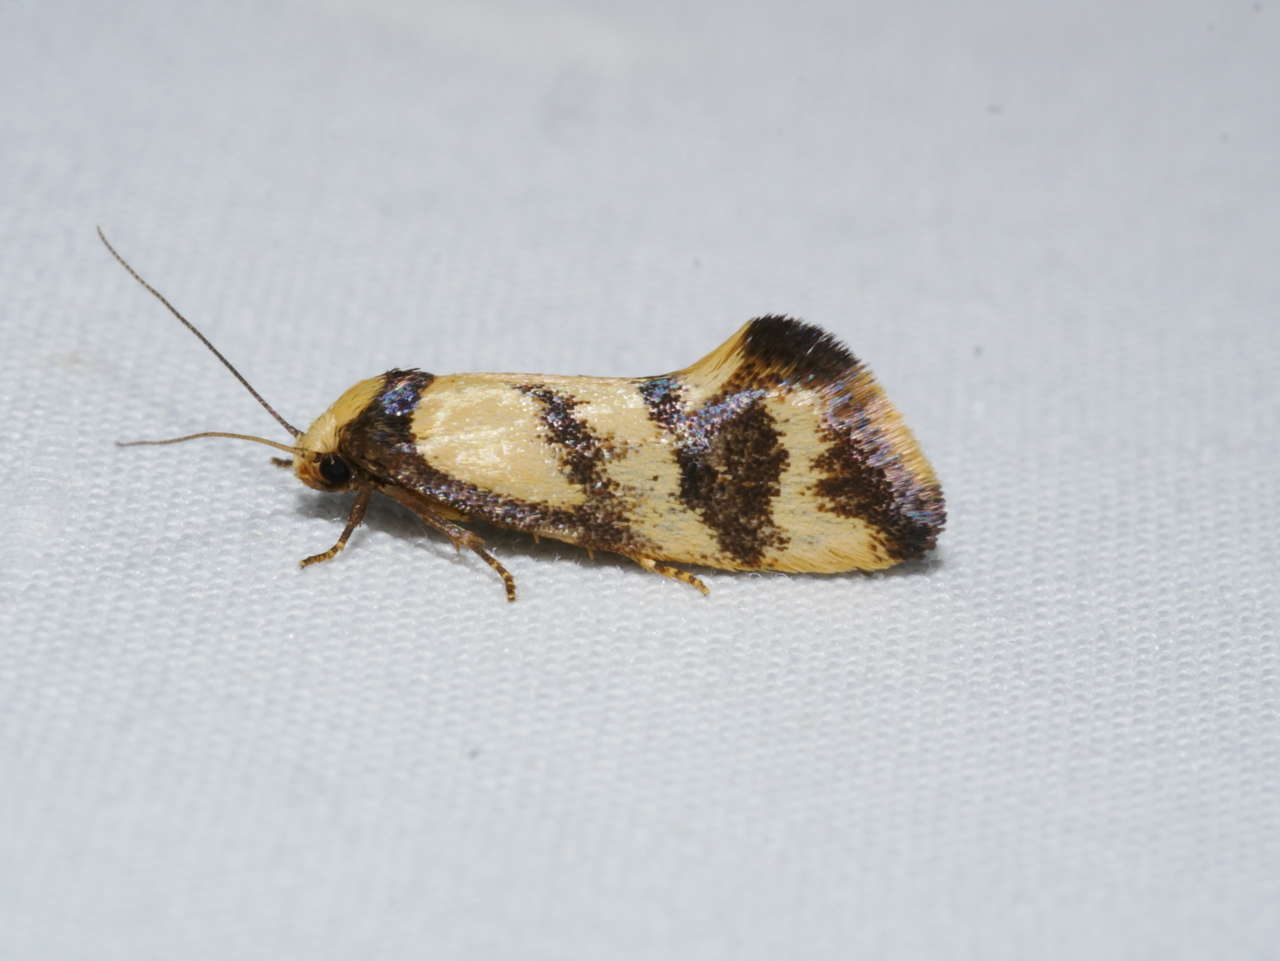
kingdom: Animalia
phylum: Arthropoda
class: Insecta
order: Lepidoptera
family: Oecophoridae
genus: Olbonoma
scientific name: Olbonoma triptycha
